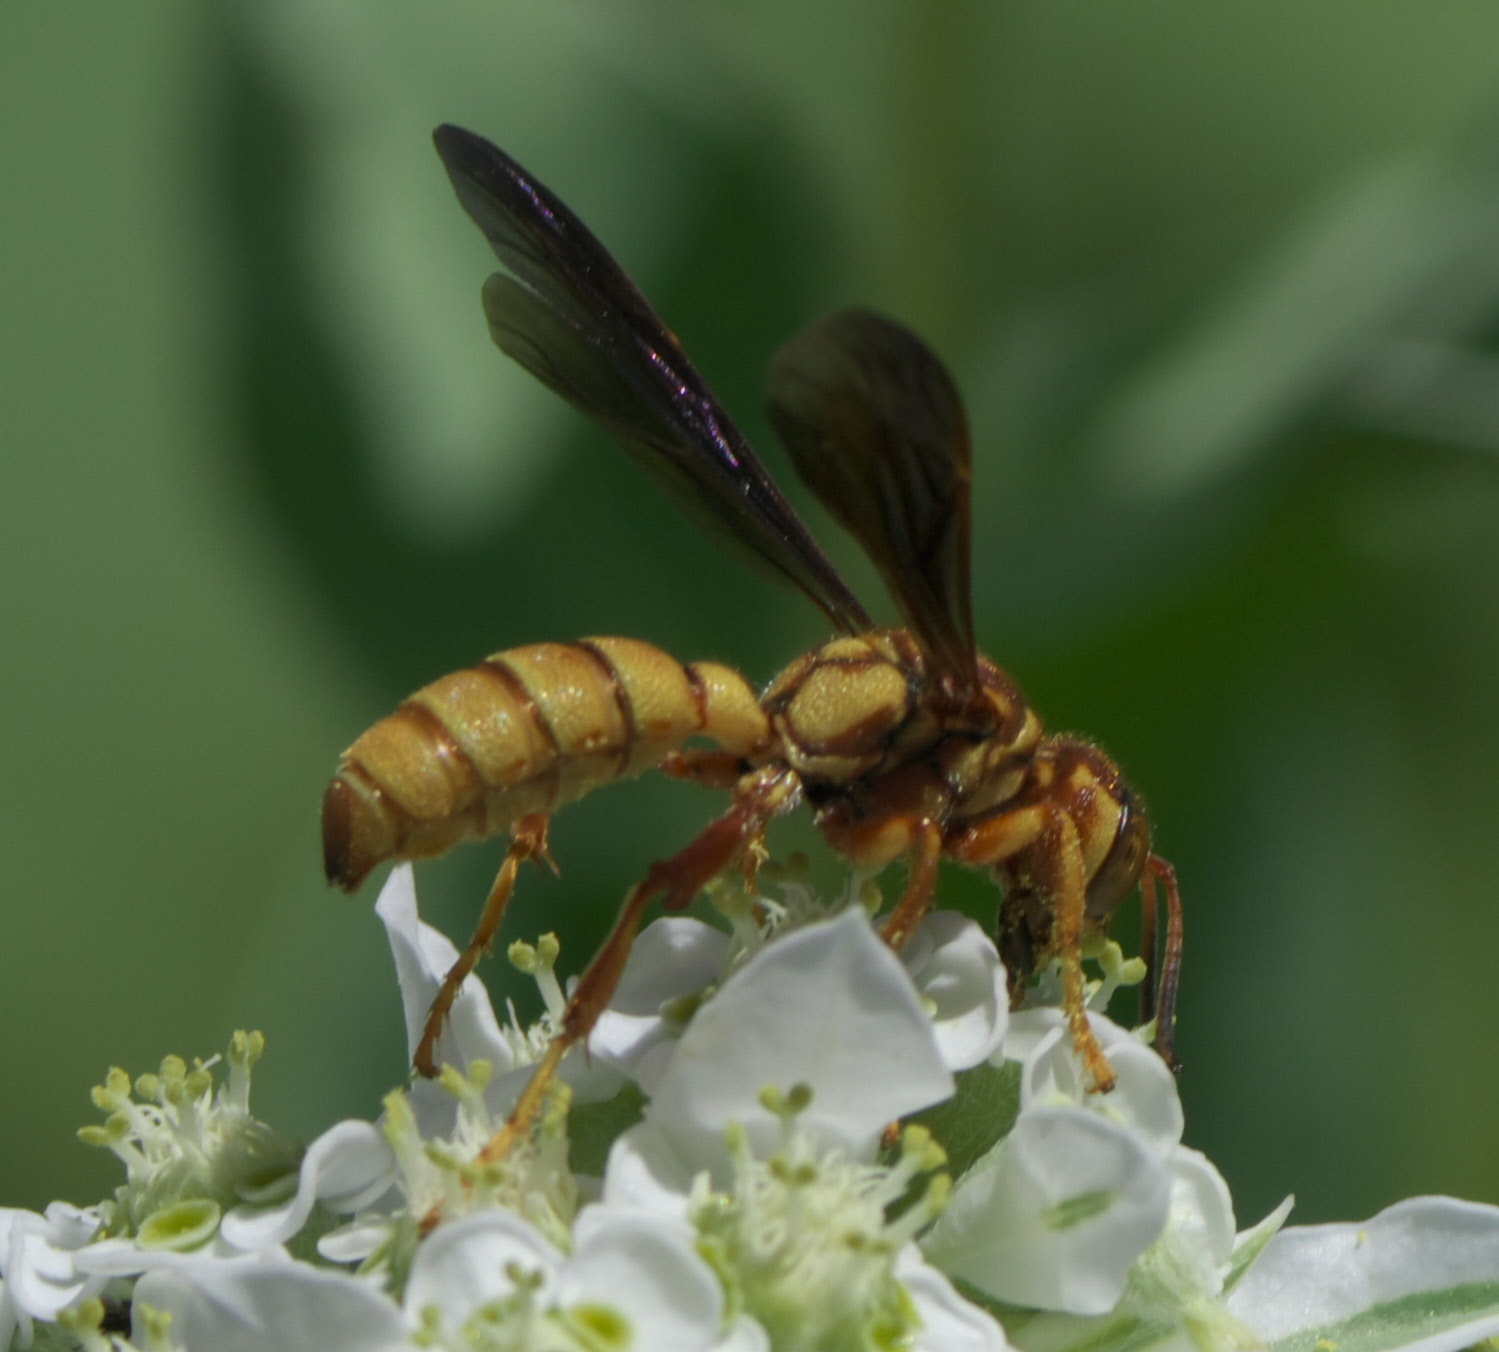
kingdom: Animalia
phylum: Arthropoda
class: Insecta
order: Hymenoptera
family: Crabronidae
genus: Cerceris
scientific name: Cerceris intricata
